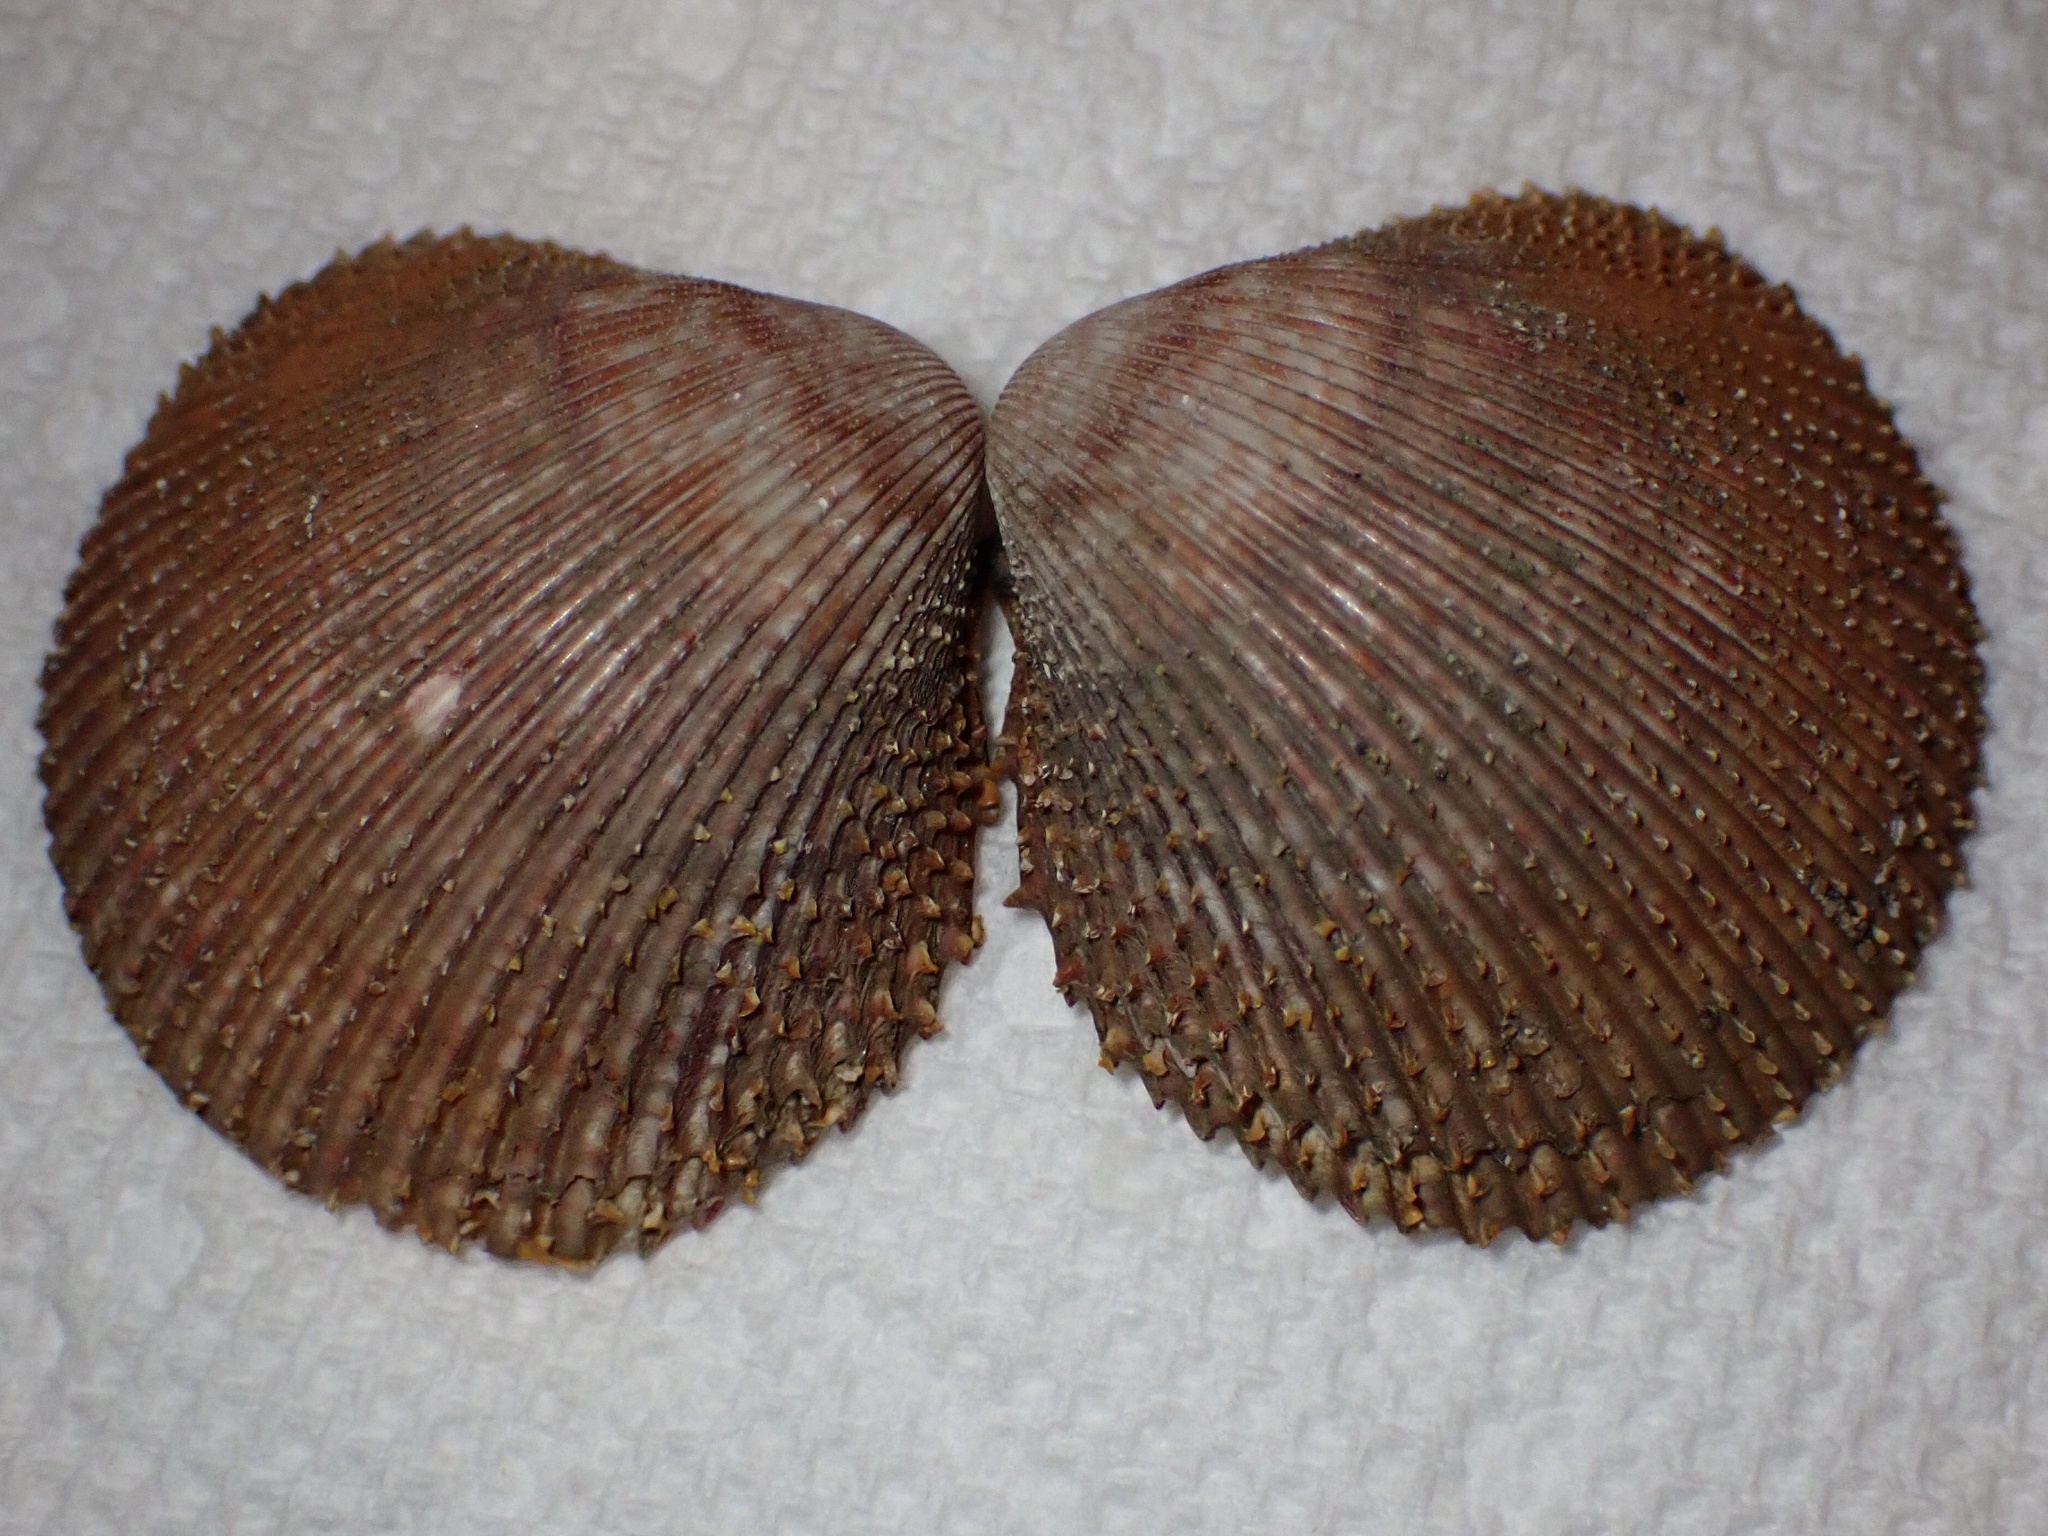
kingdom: Animalia
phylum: Mollusca
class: Bivalvia
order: Cardiida
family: Cardiidae
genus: Dallocardia
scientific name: Dallocardia quadragenaria
